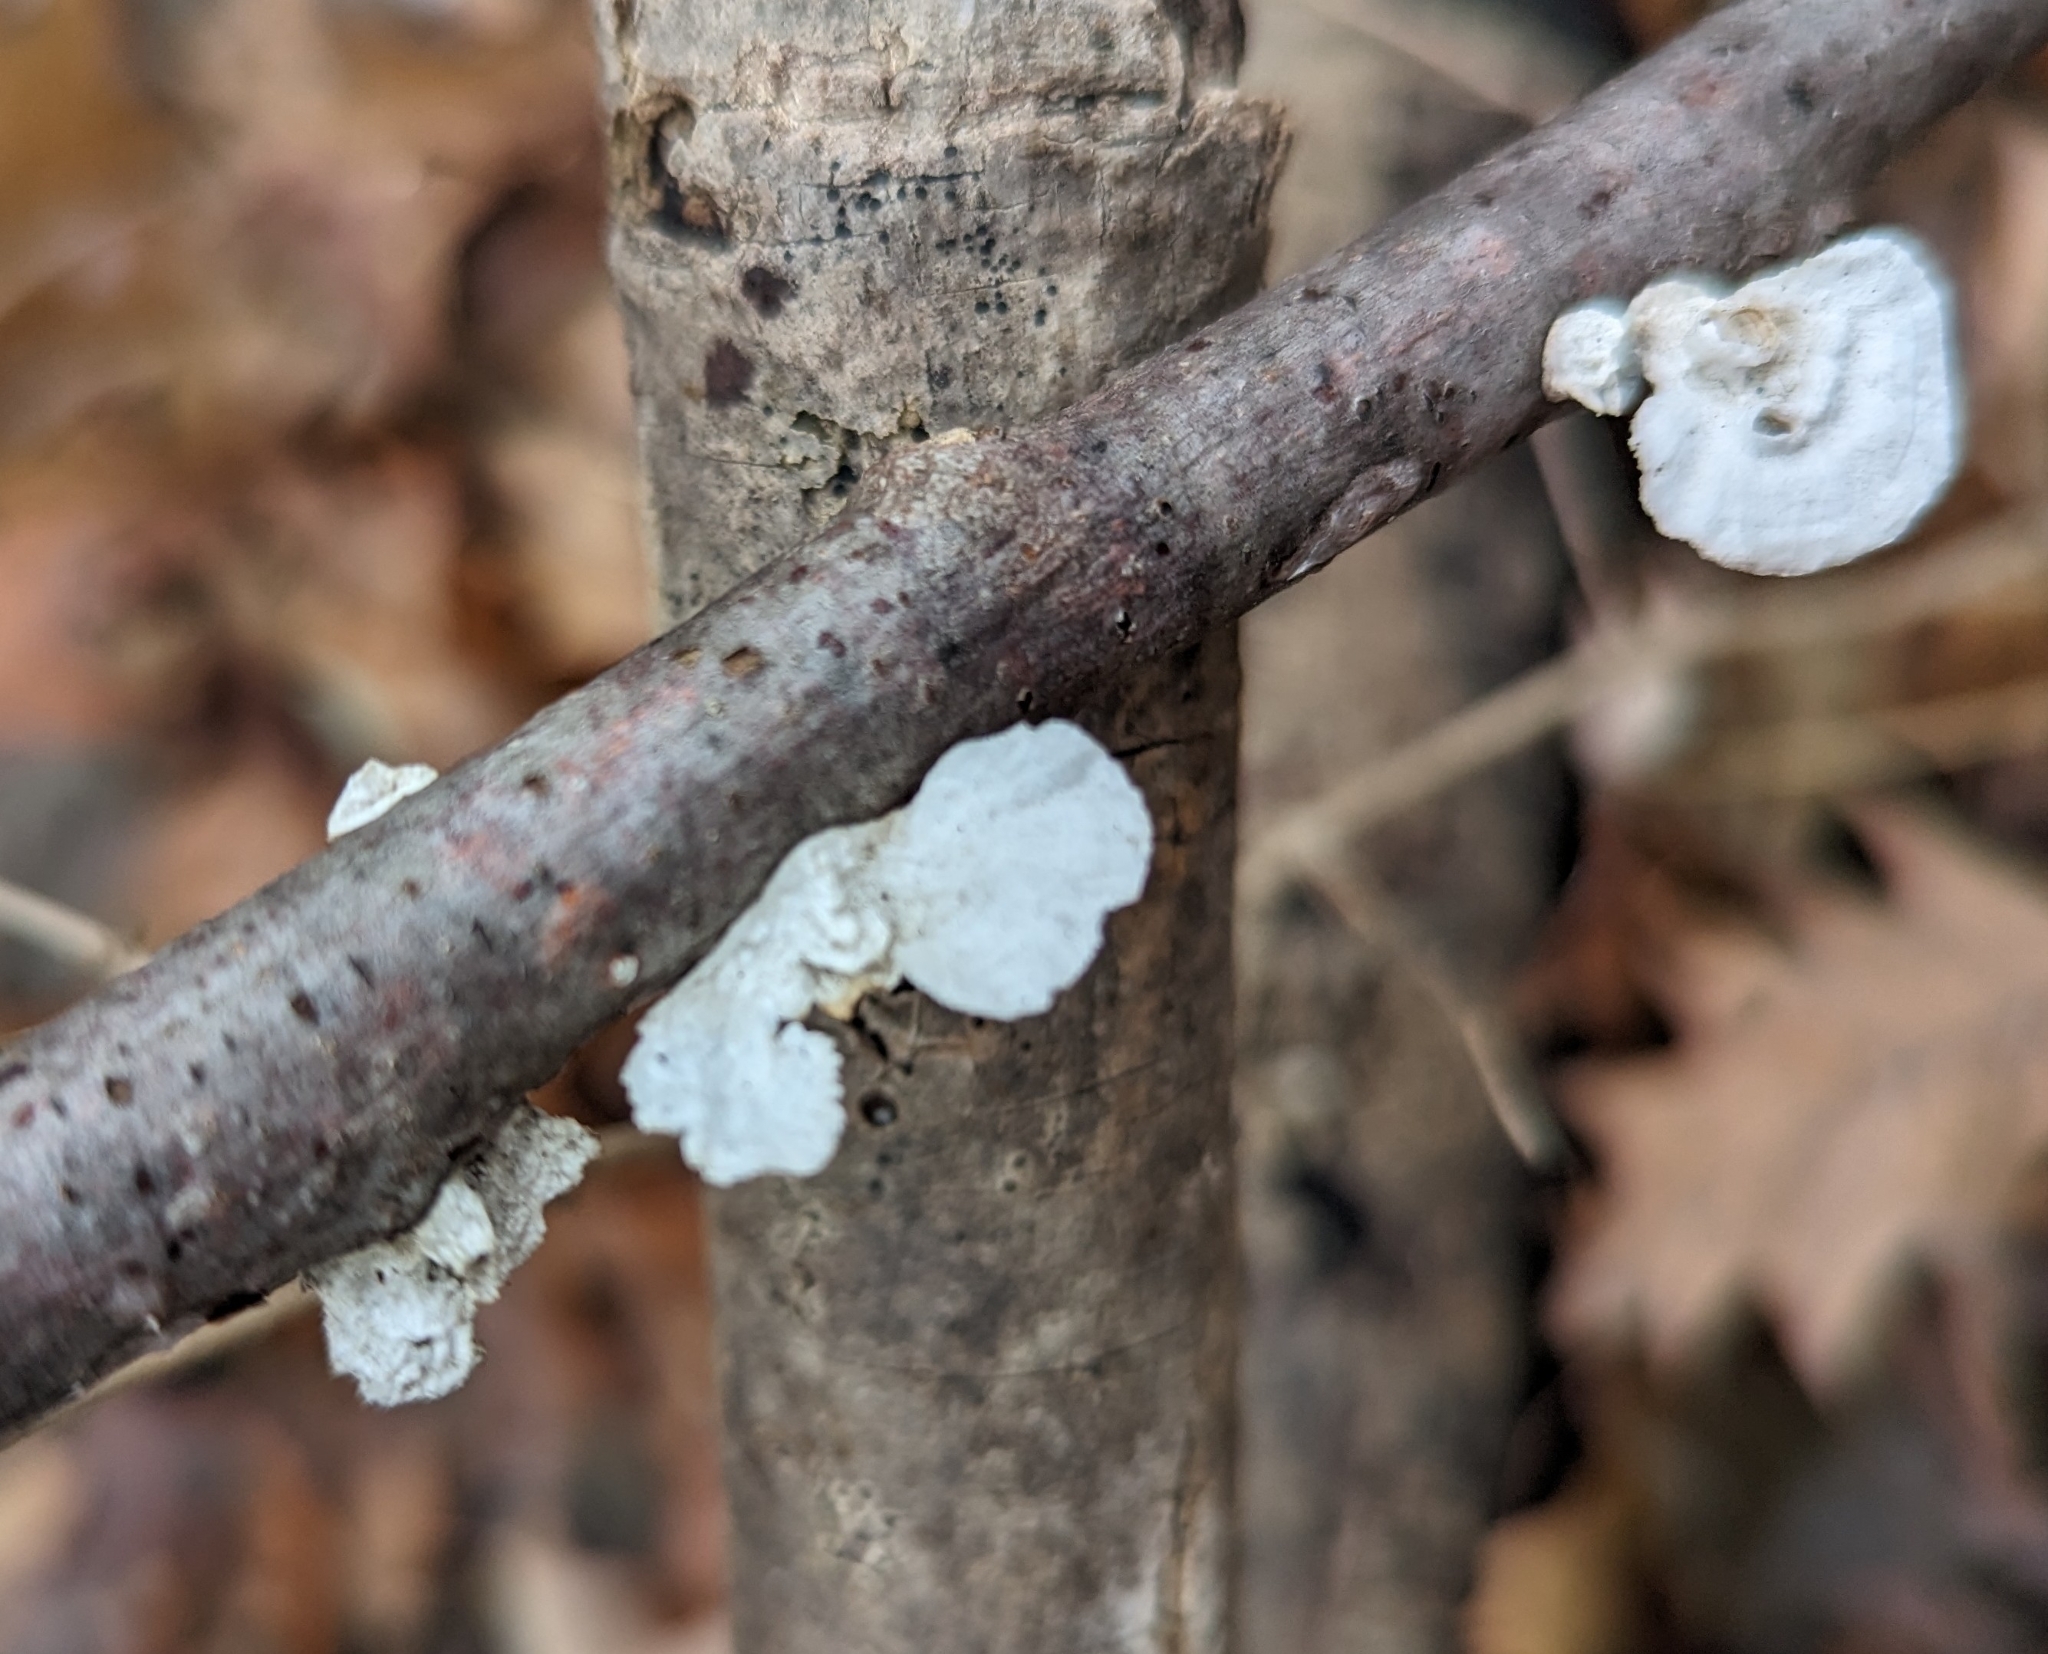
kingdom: Fungi
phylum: Basidiomycota
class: Agaricomycetes
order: Polyporales
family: Polyporaceae
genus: Poronidulus
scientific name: Poronidulus conchifer
